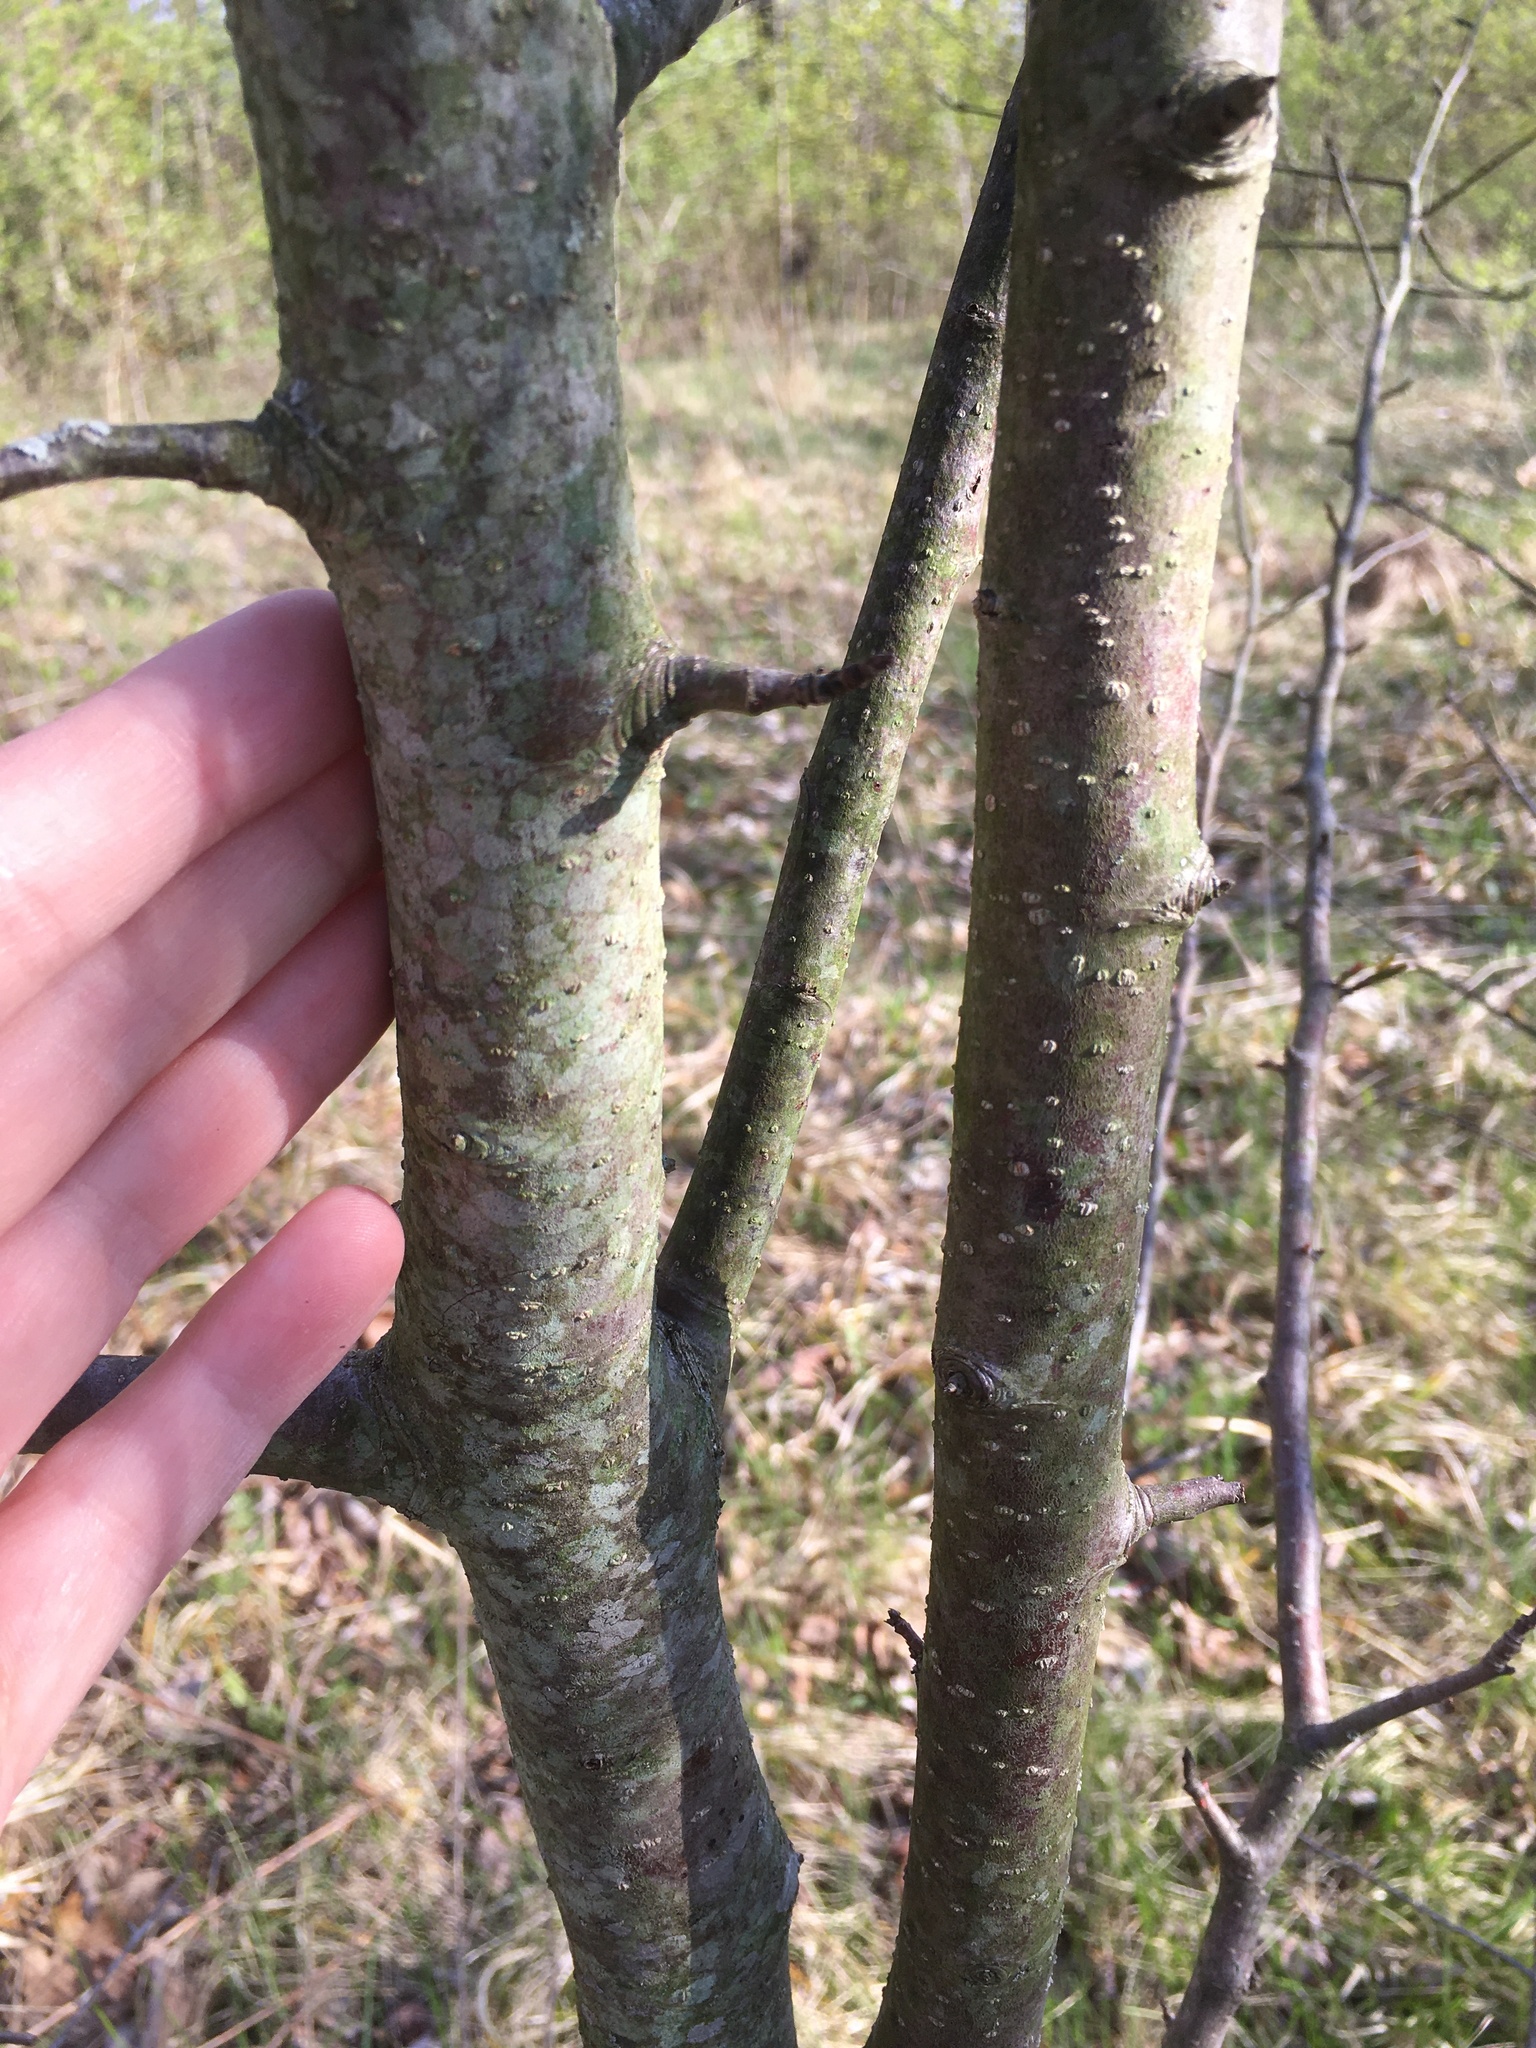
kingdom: Plantae
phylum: Tracheophyta
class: Magnoliopsida
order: Rosales
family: Rosaceae
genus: Pyrus
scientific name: Pyrus calleryana
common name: Callery pear
